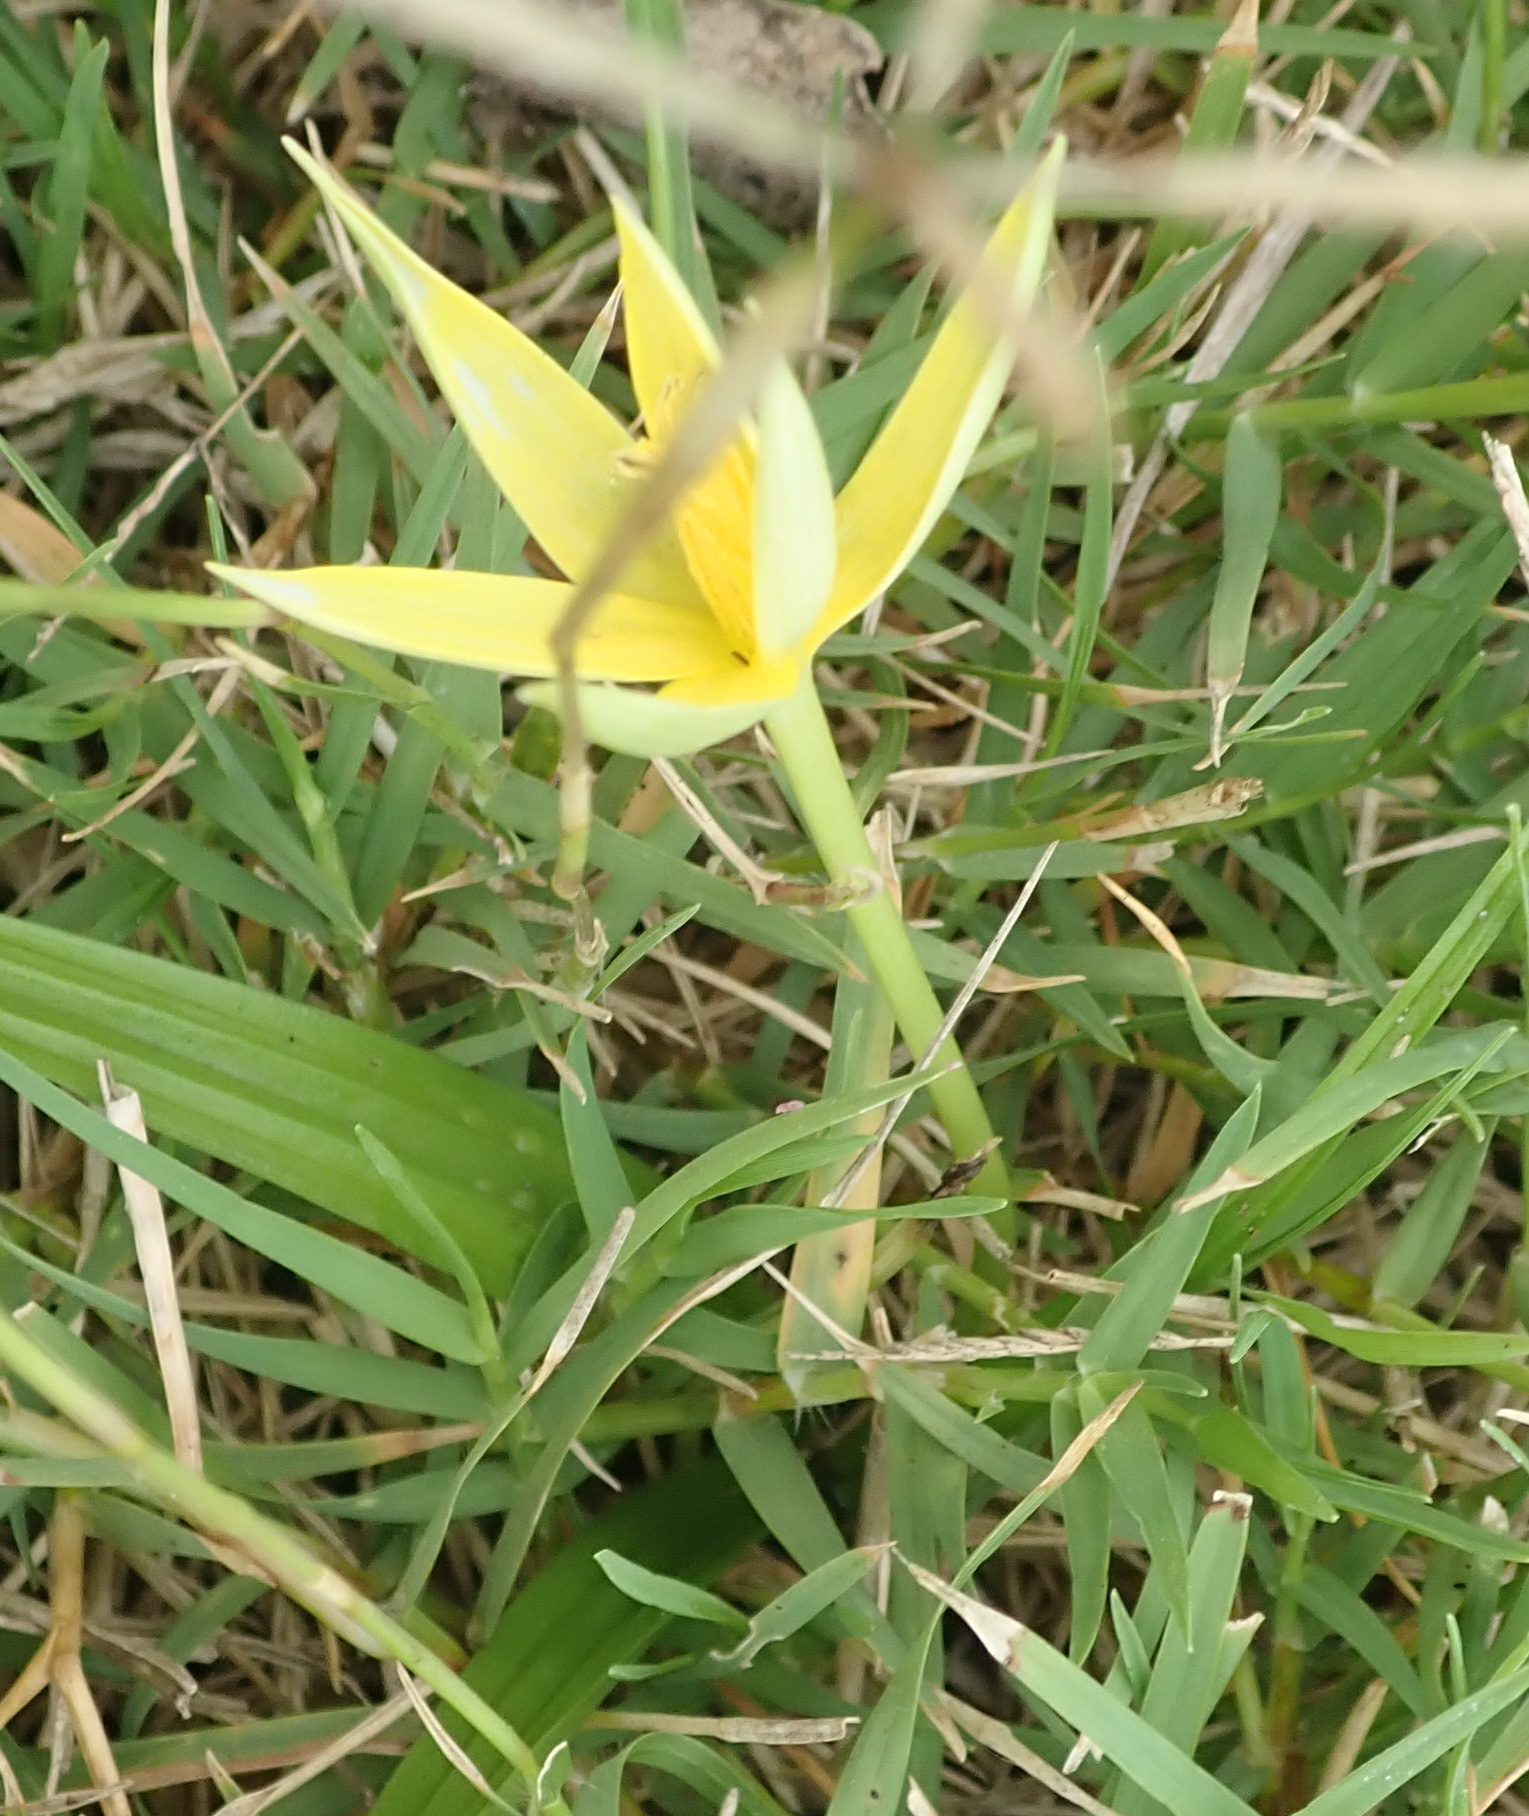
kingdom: Plantae
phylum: Tracheophyta
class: Liliopsida
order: Asparagales
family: Hypoxidaceae
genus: Empodium
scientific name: Empodium gloriosum
